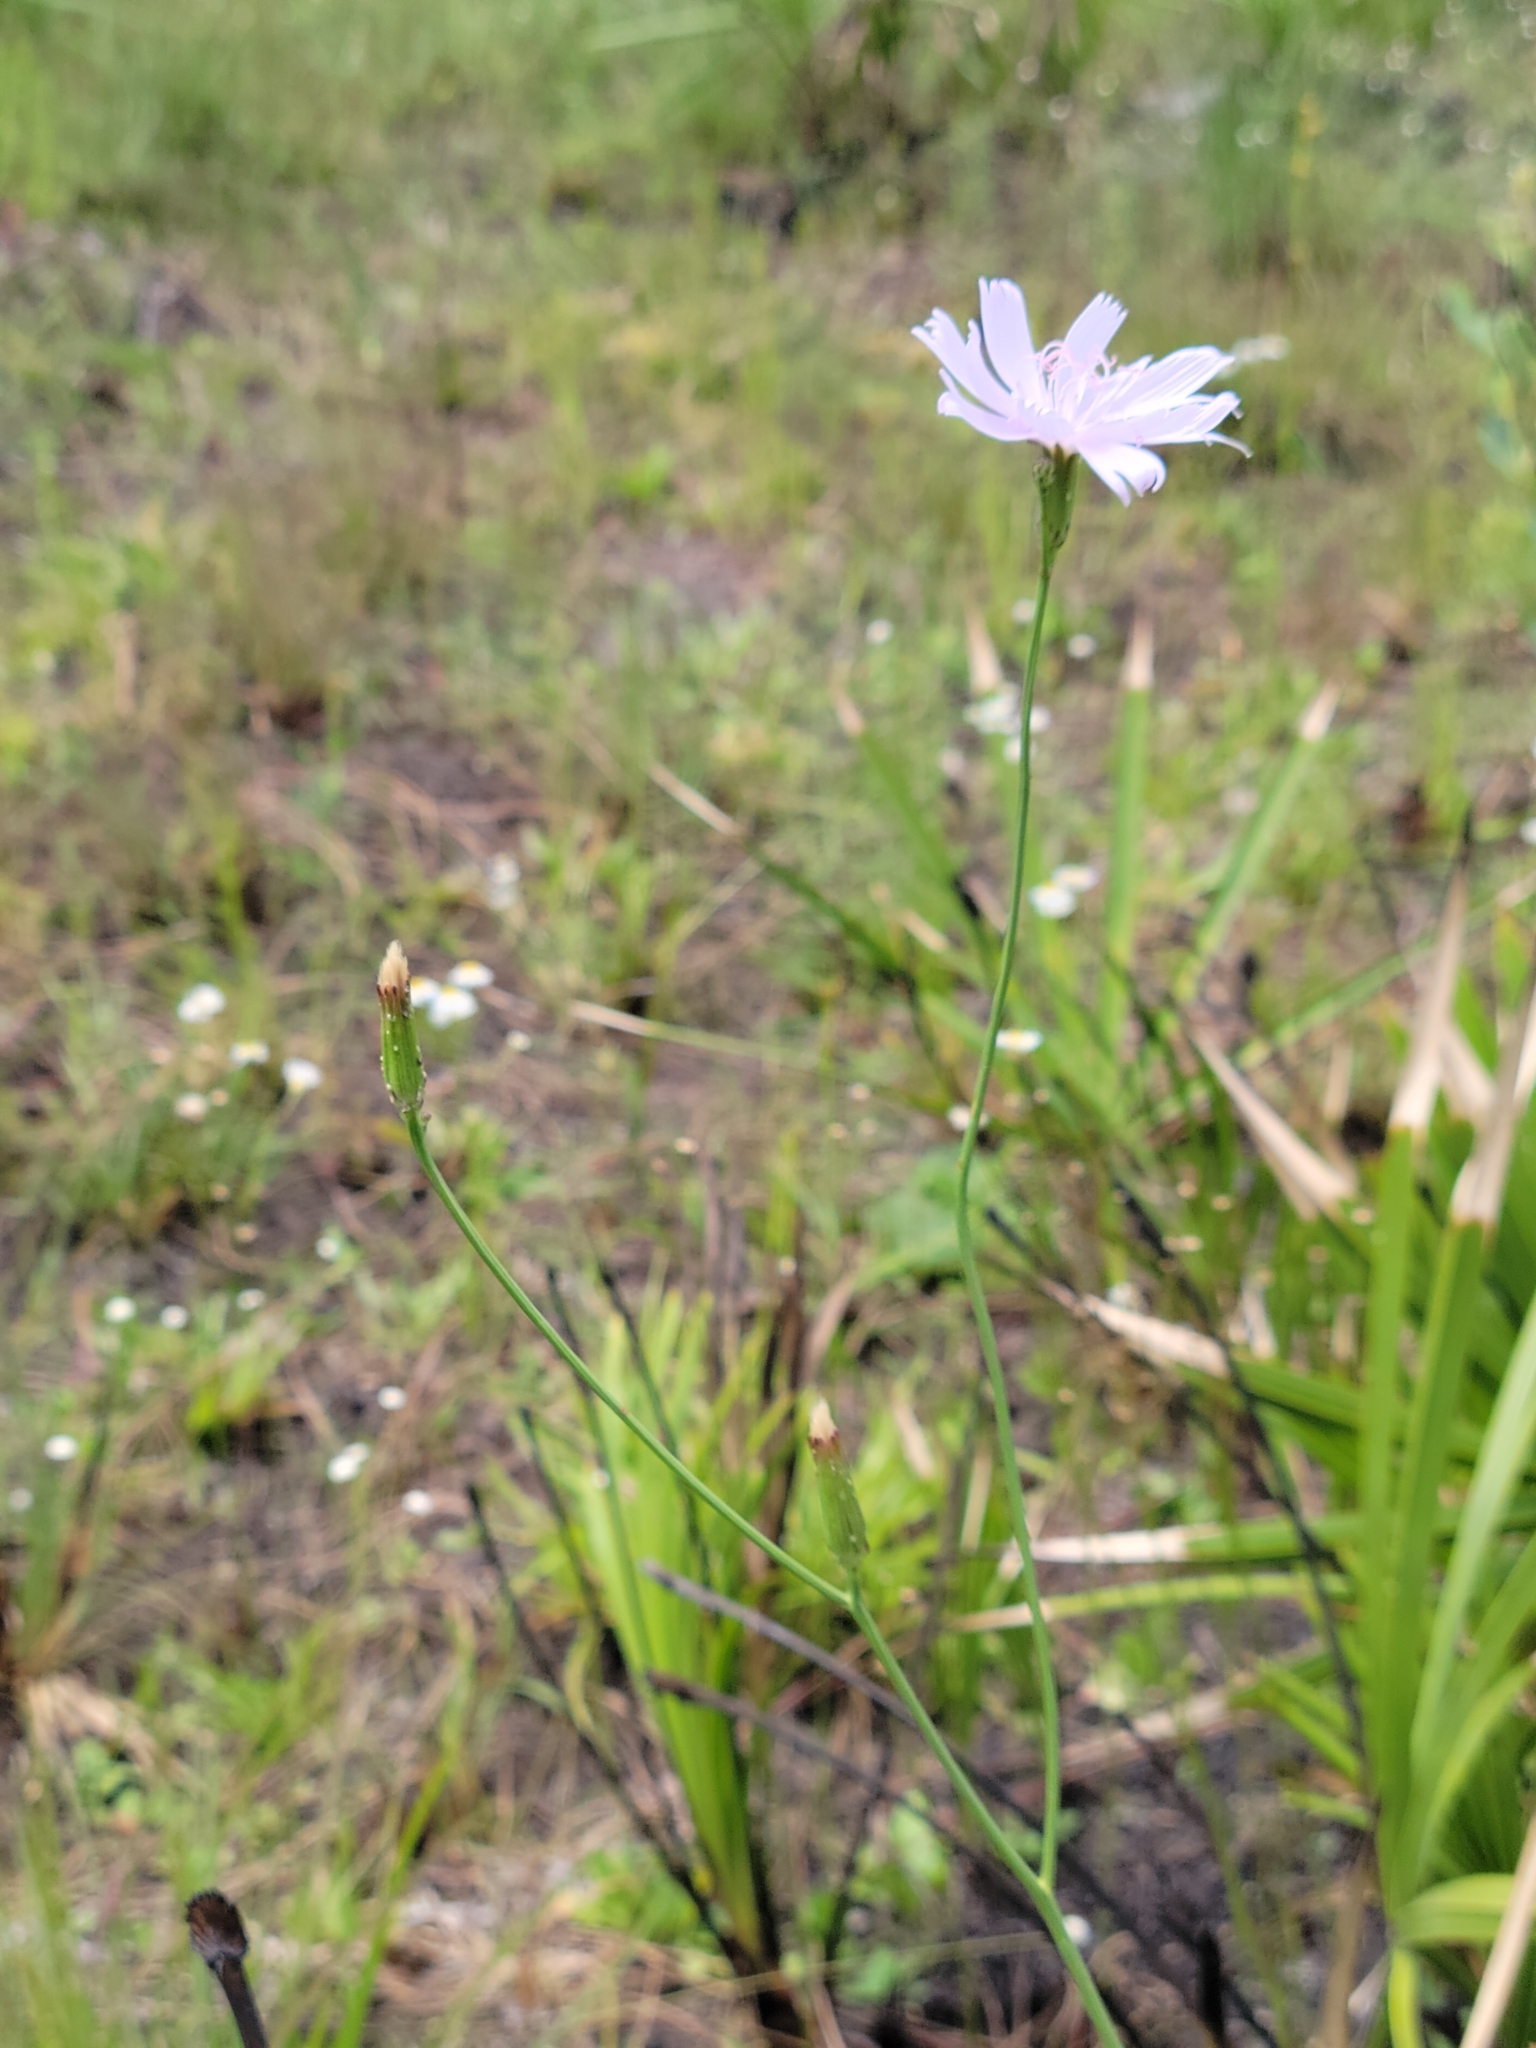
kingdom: Plantae
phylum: Tracheophyta
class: Magnoliopsida
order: Asterales
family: Asteraceae
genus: Lygodesmia
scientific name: Lygodesmia aphylla
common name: Rose-rush
